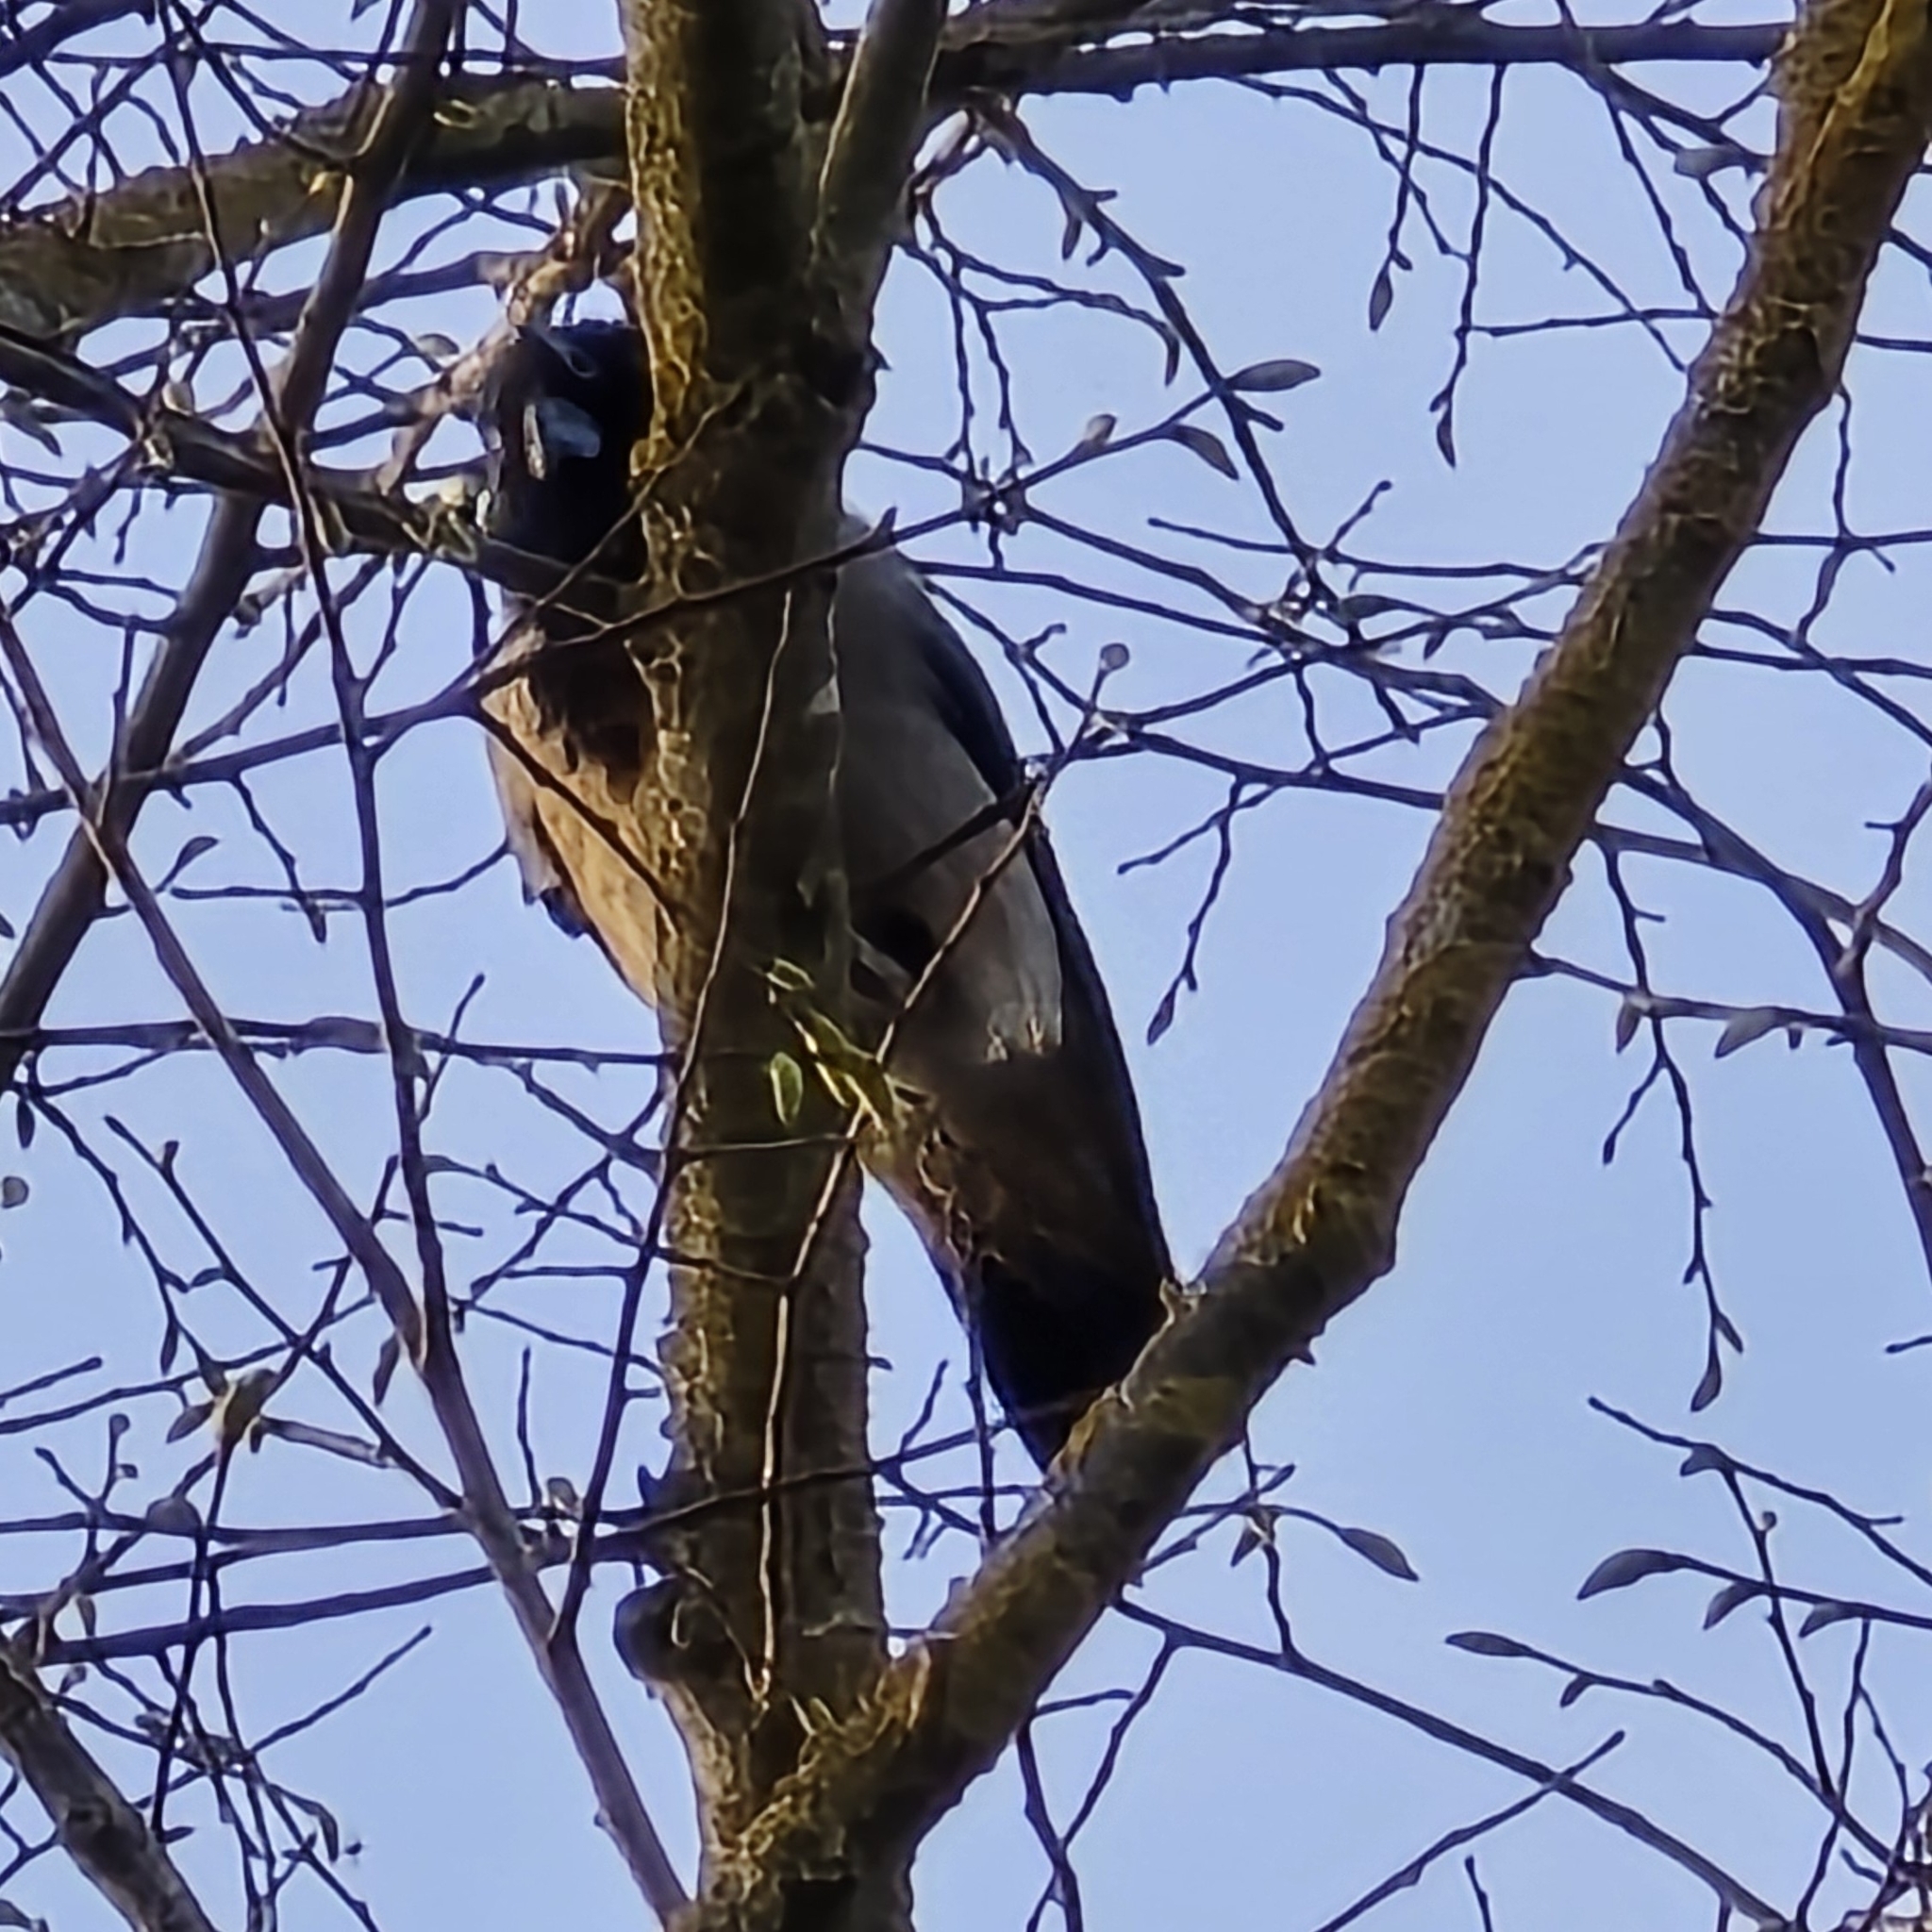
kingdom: Animalia
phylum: Chordata
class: Aves
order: Passeriformes
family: Corvidae
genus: Corvus
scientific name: Corvus cornix
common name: Hooded crow
